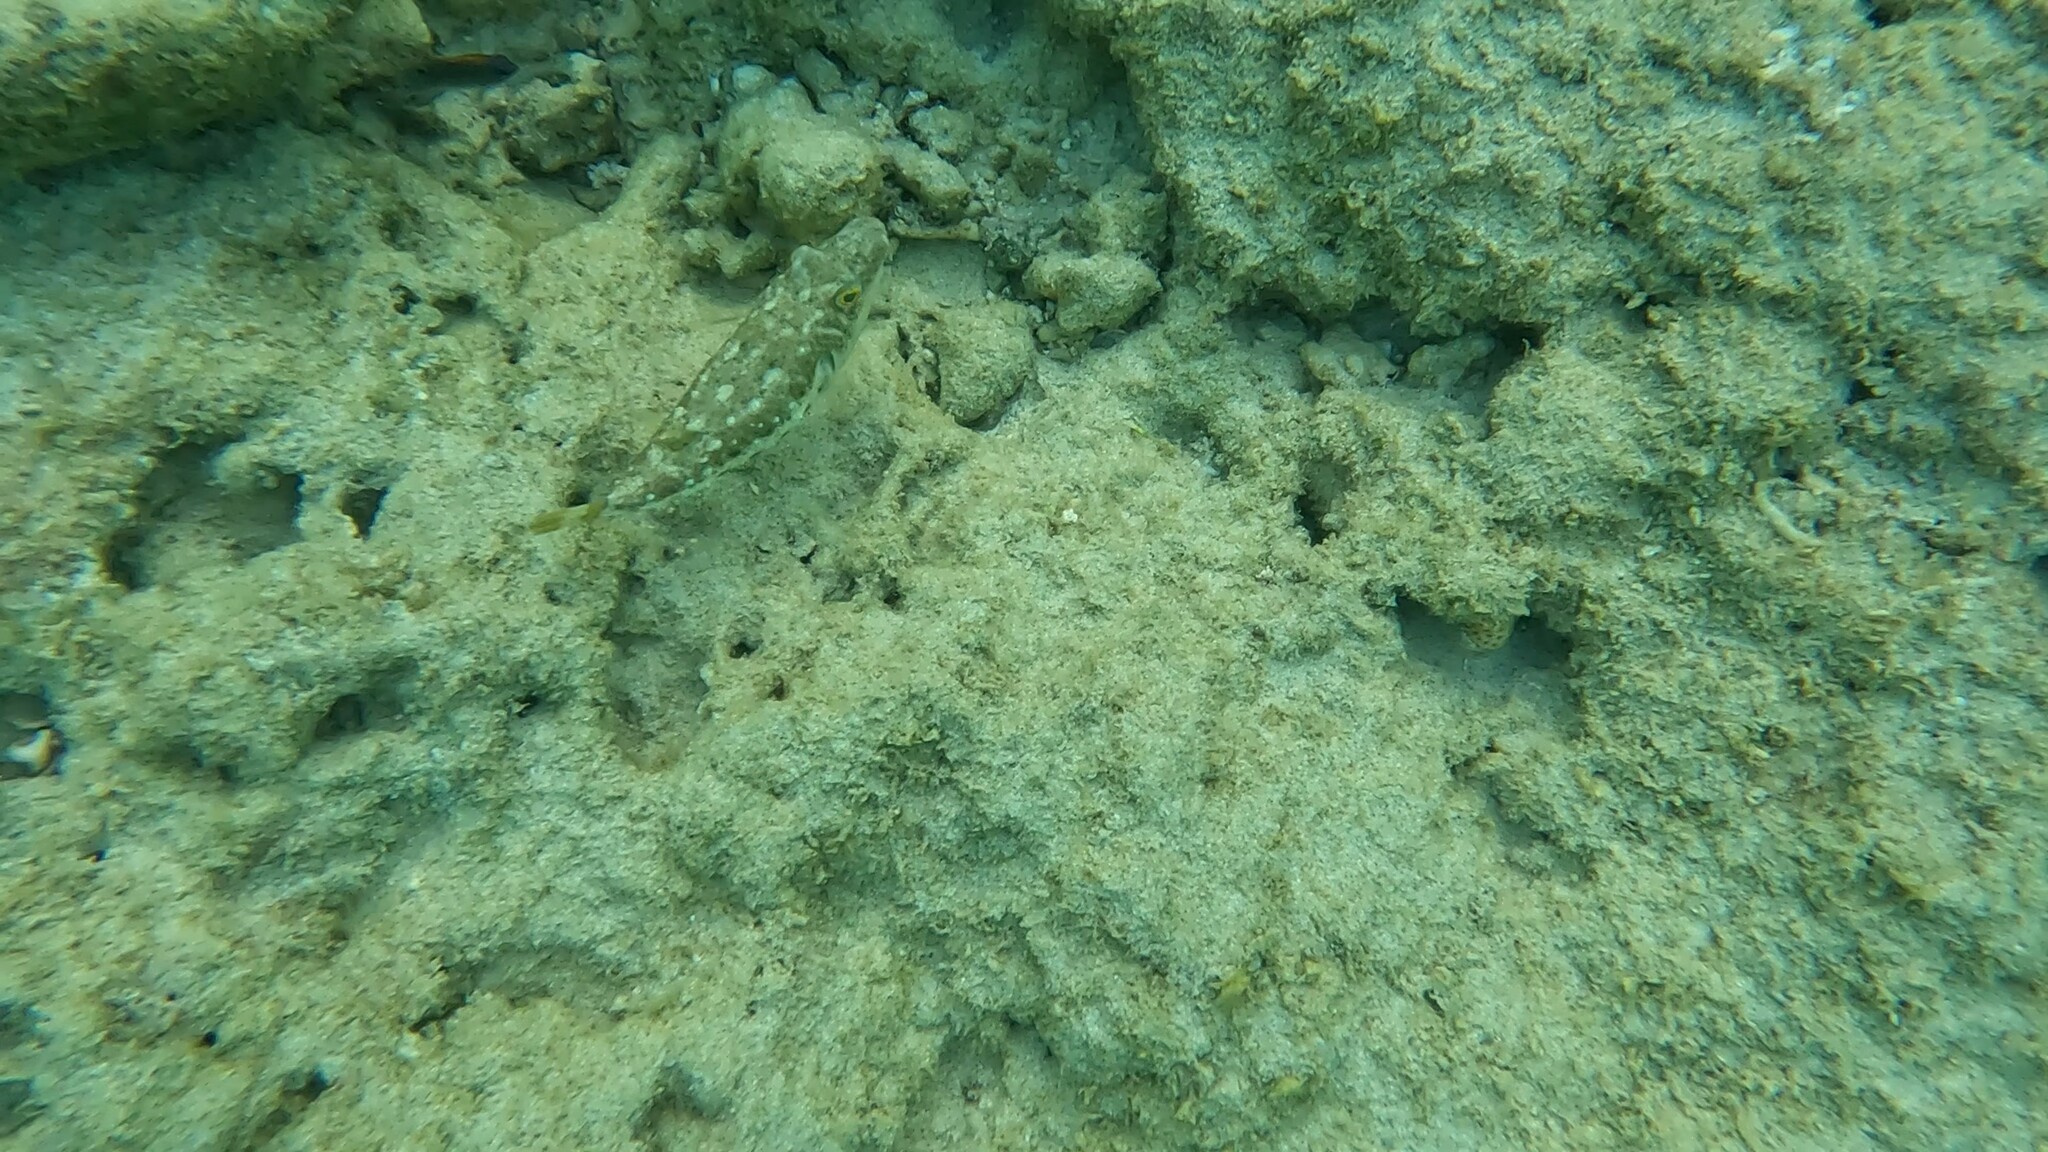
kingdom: Animalia
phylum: Chordata
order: Tetraodontiformes
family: Tetraodontidae
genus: Sphoeroides
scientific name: Sphoeroides spengleri
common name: Bandtail puffer
